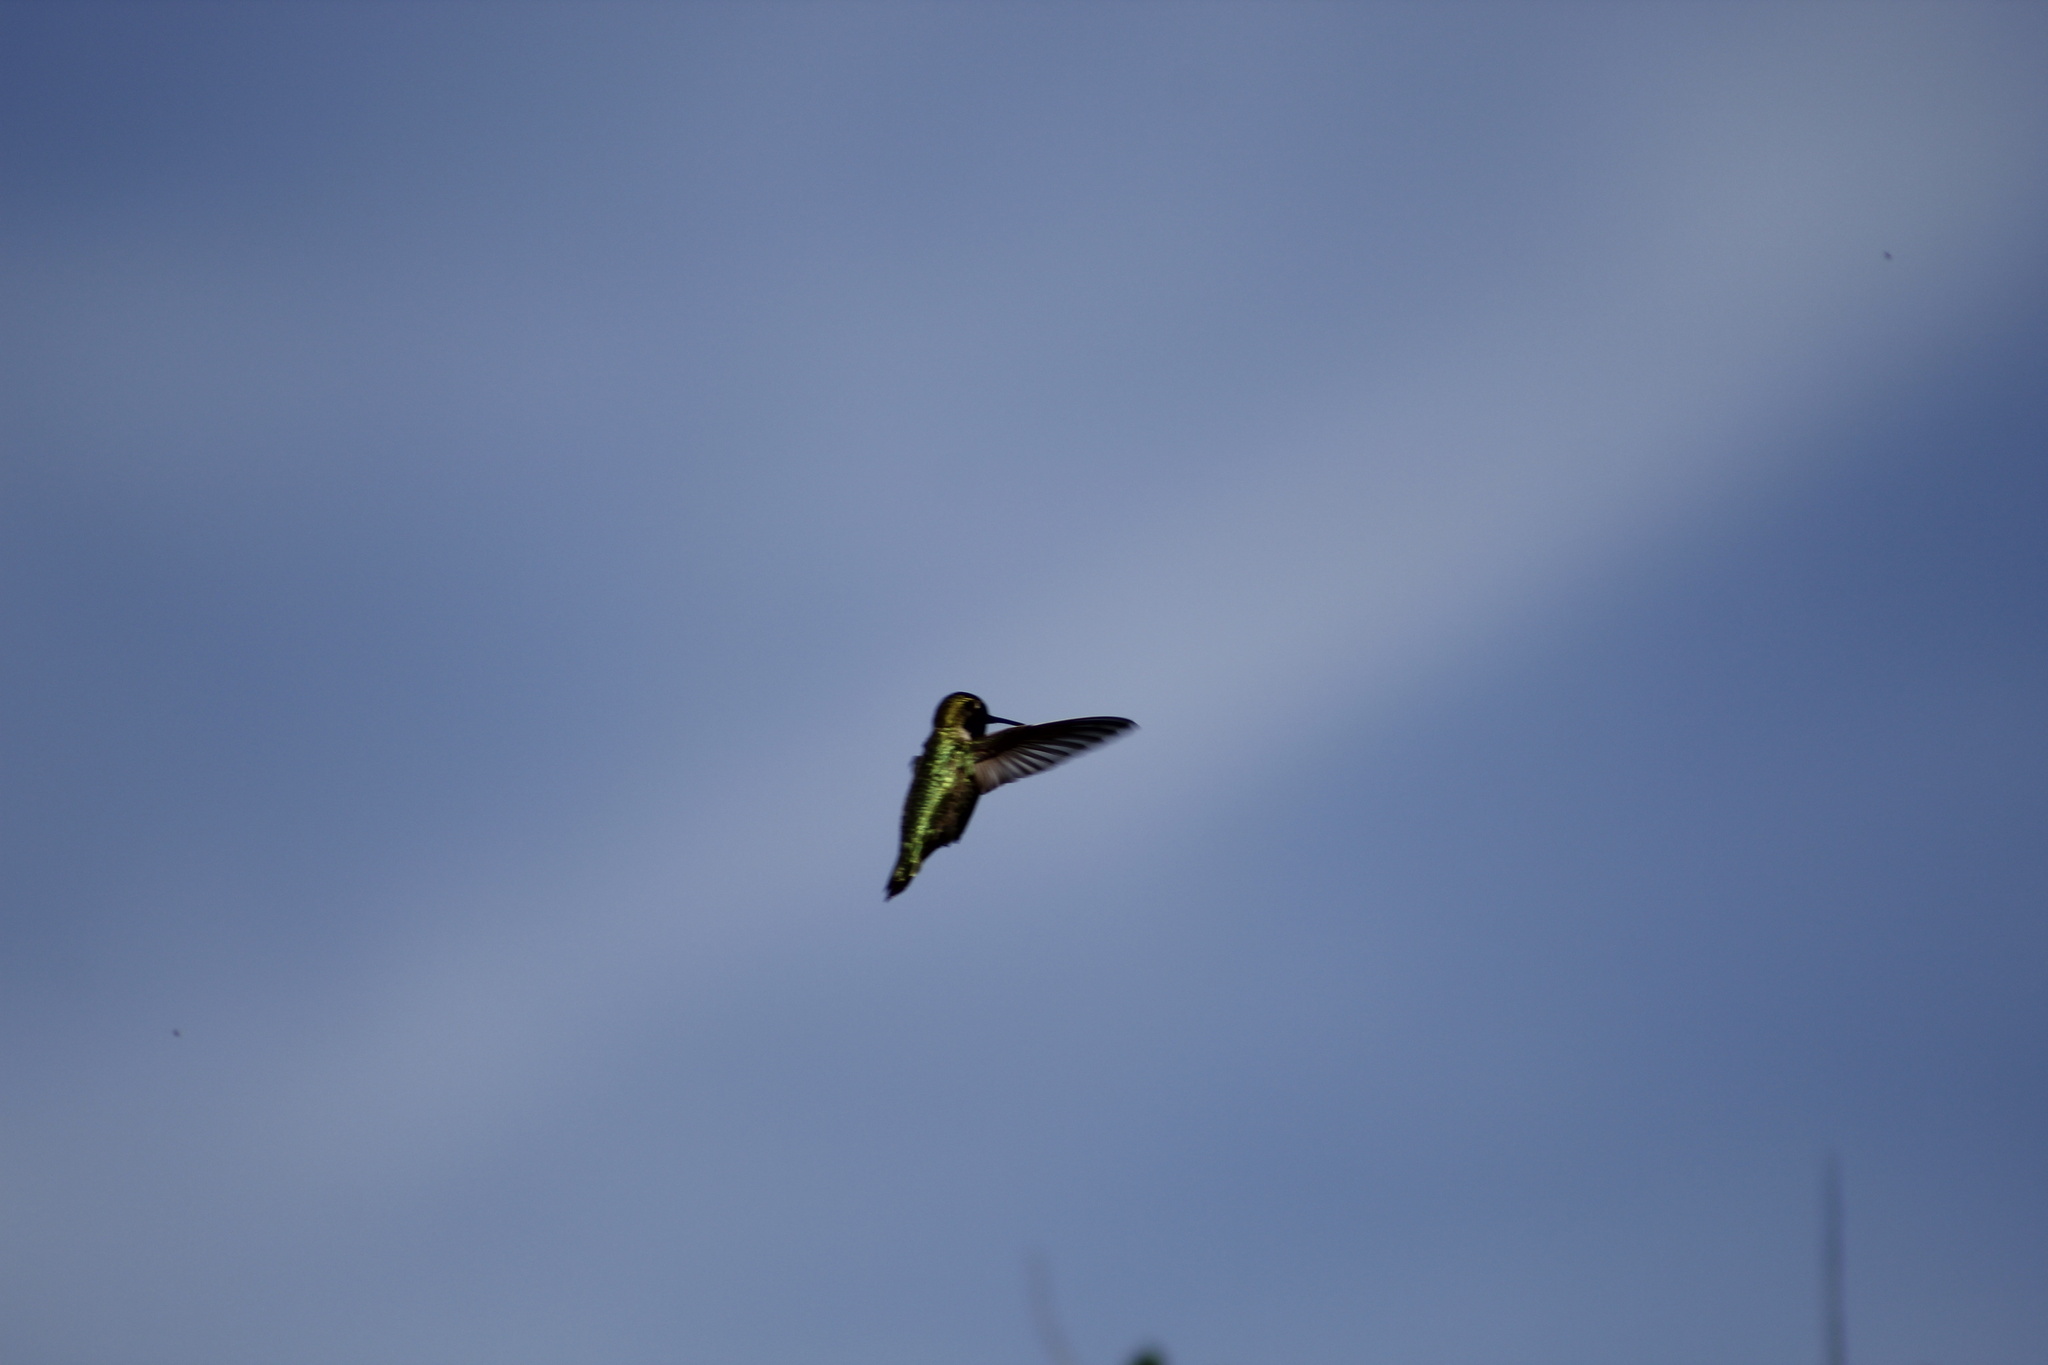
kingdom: Animalia
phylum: Chordata
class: Aves
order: Apodiformes
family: Trochilidae
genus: Calypte
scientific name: Calypte anna
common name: Anna's hummingbird
